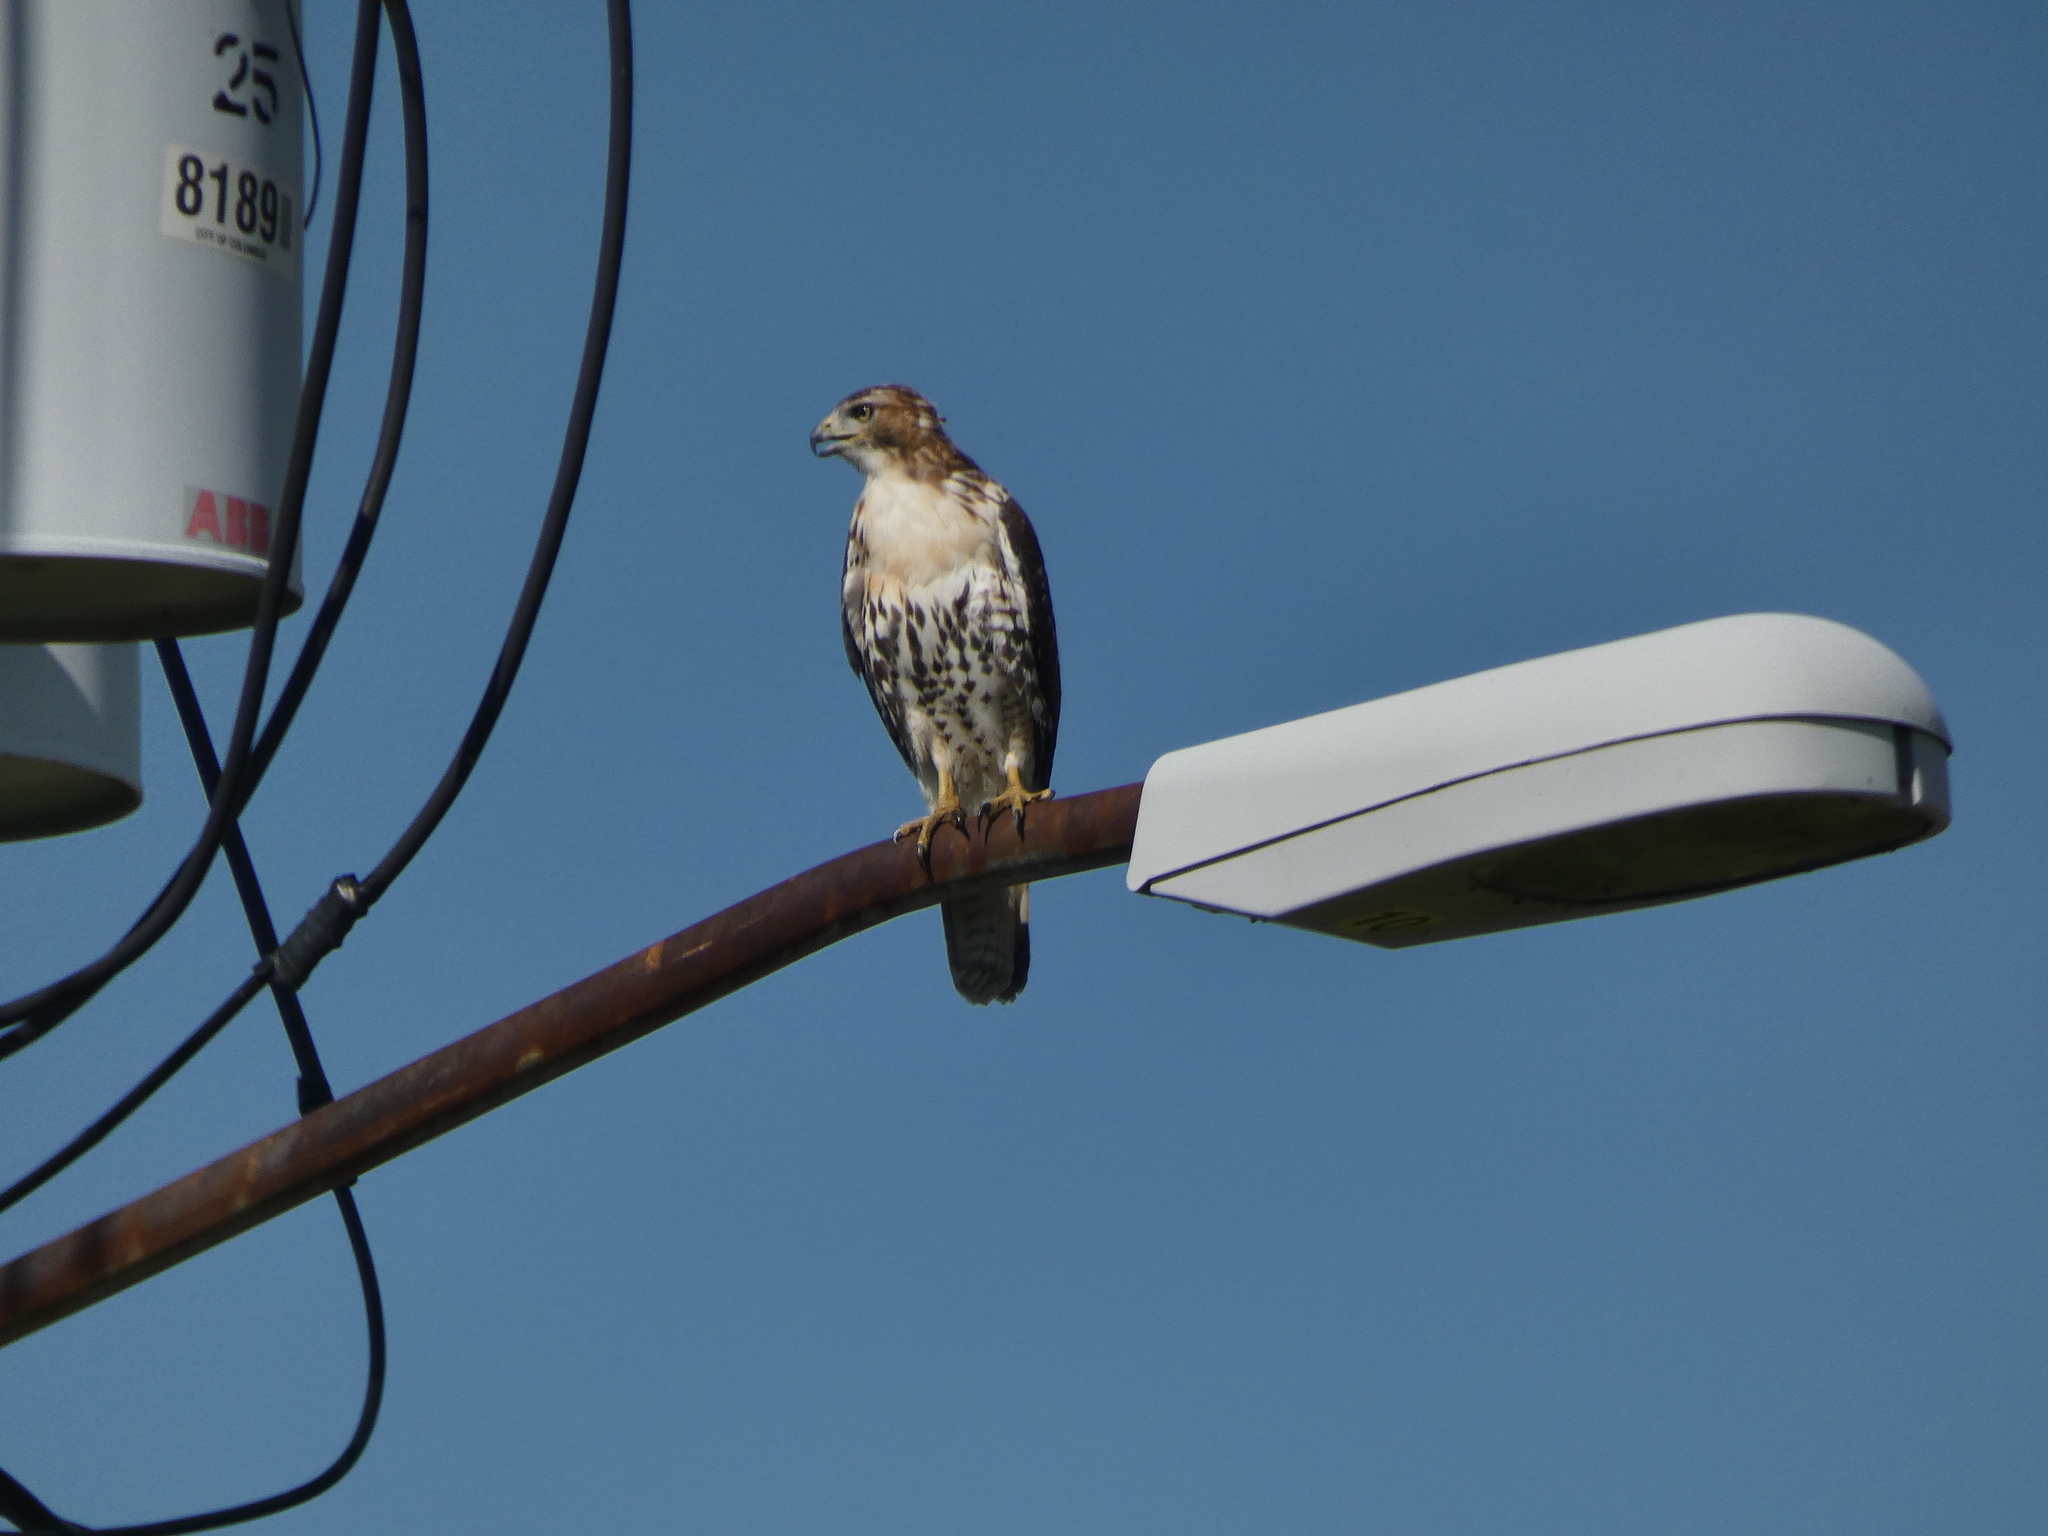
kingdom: Animalia
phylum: Chordata
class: Aves
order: Accipitriformes
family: Accipitridae
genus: Buteo
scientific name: Buteo jamaicensis
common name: Red-tailed hawk
